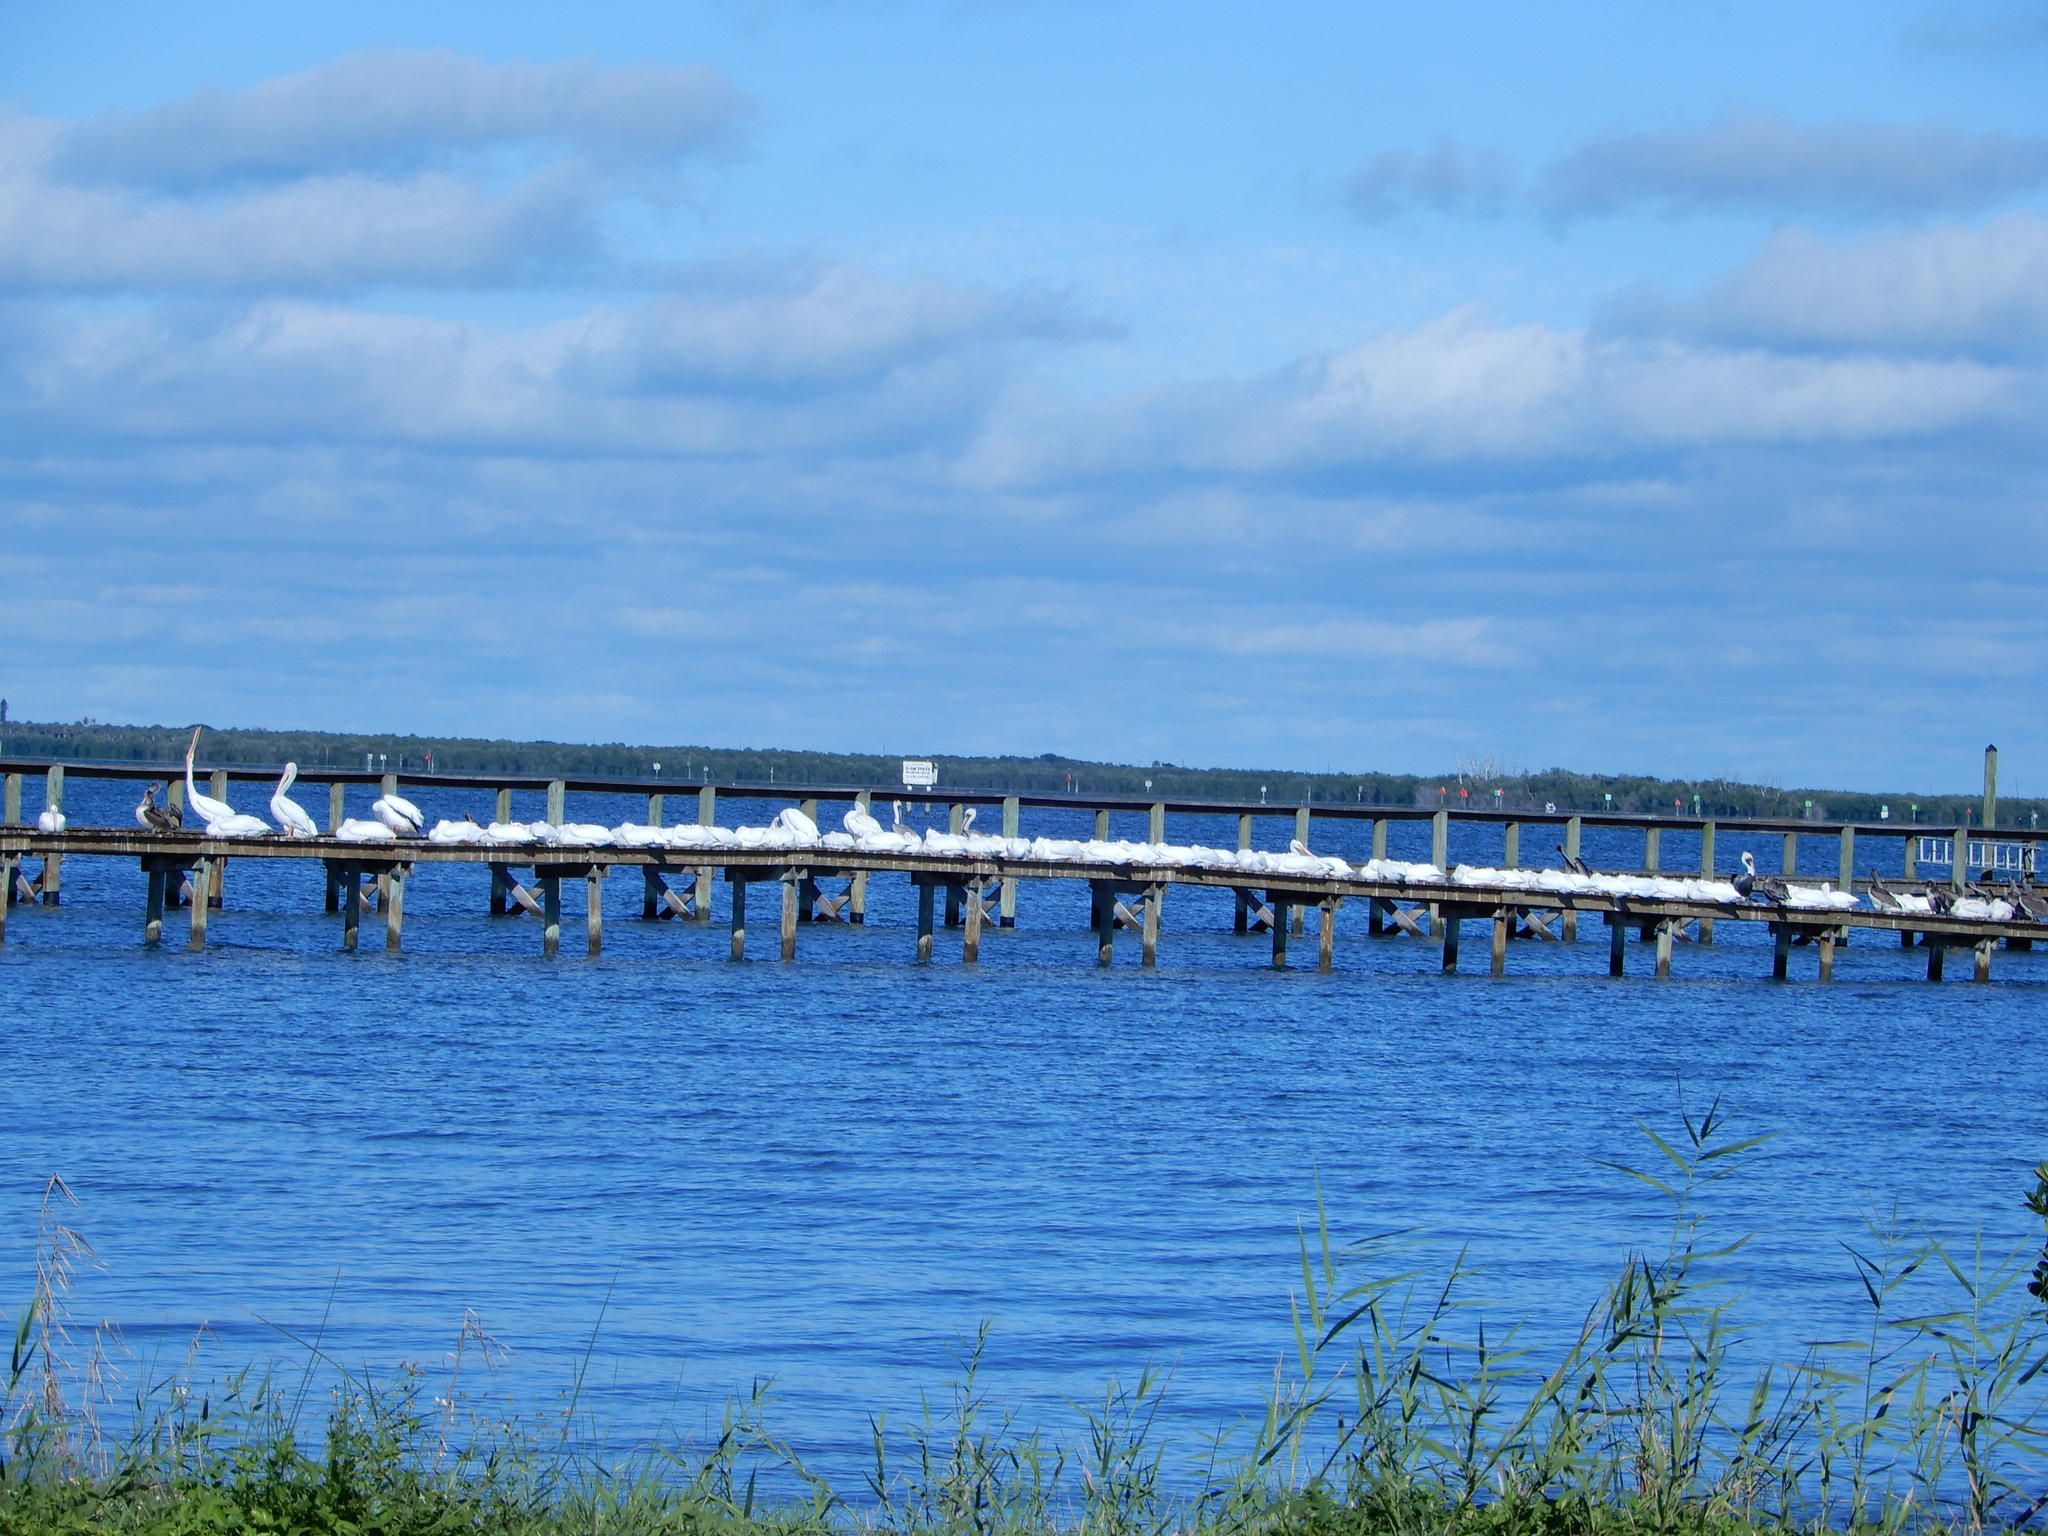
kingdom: Animalia
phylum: Chordata
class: Aves
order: Pelecaniformes
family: Pelecanidae
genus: Pelecanus
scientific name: Pelecanus erythrorhynchos
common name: American white pelican
